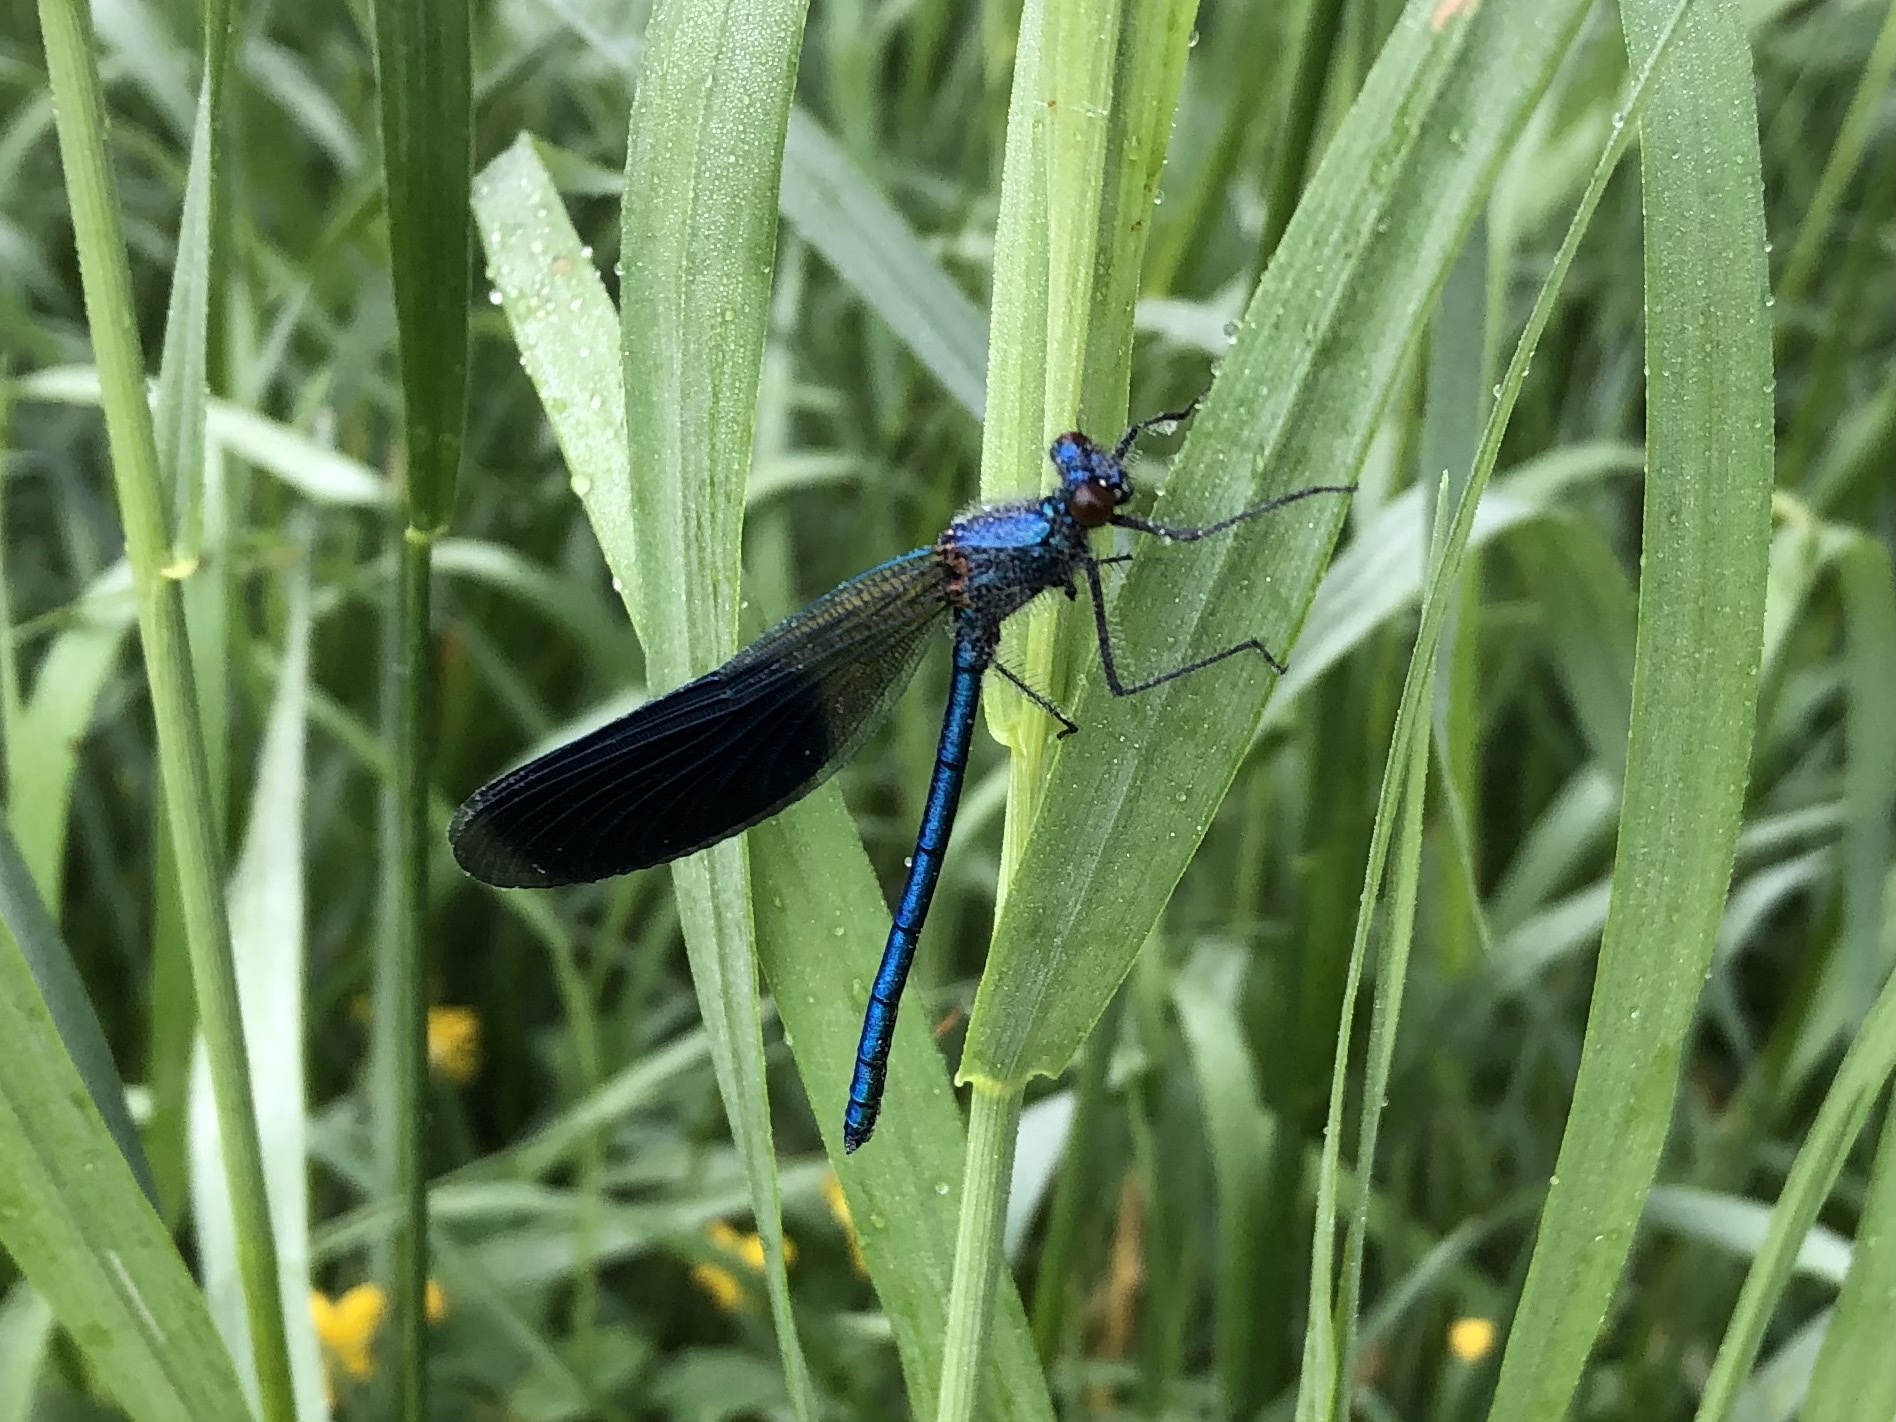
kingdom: Animalia
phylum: Arthropoda
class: Insecta
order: Odonata
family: Calopterygidae
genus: Calopteryx
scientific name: Calopteryx splendens
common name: Banded demoiselle
